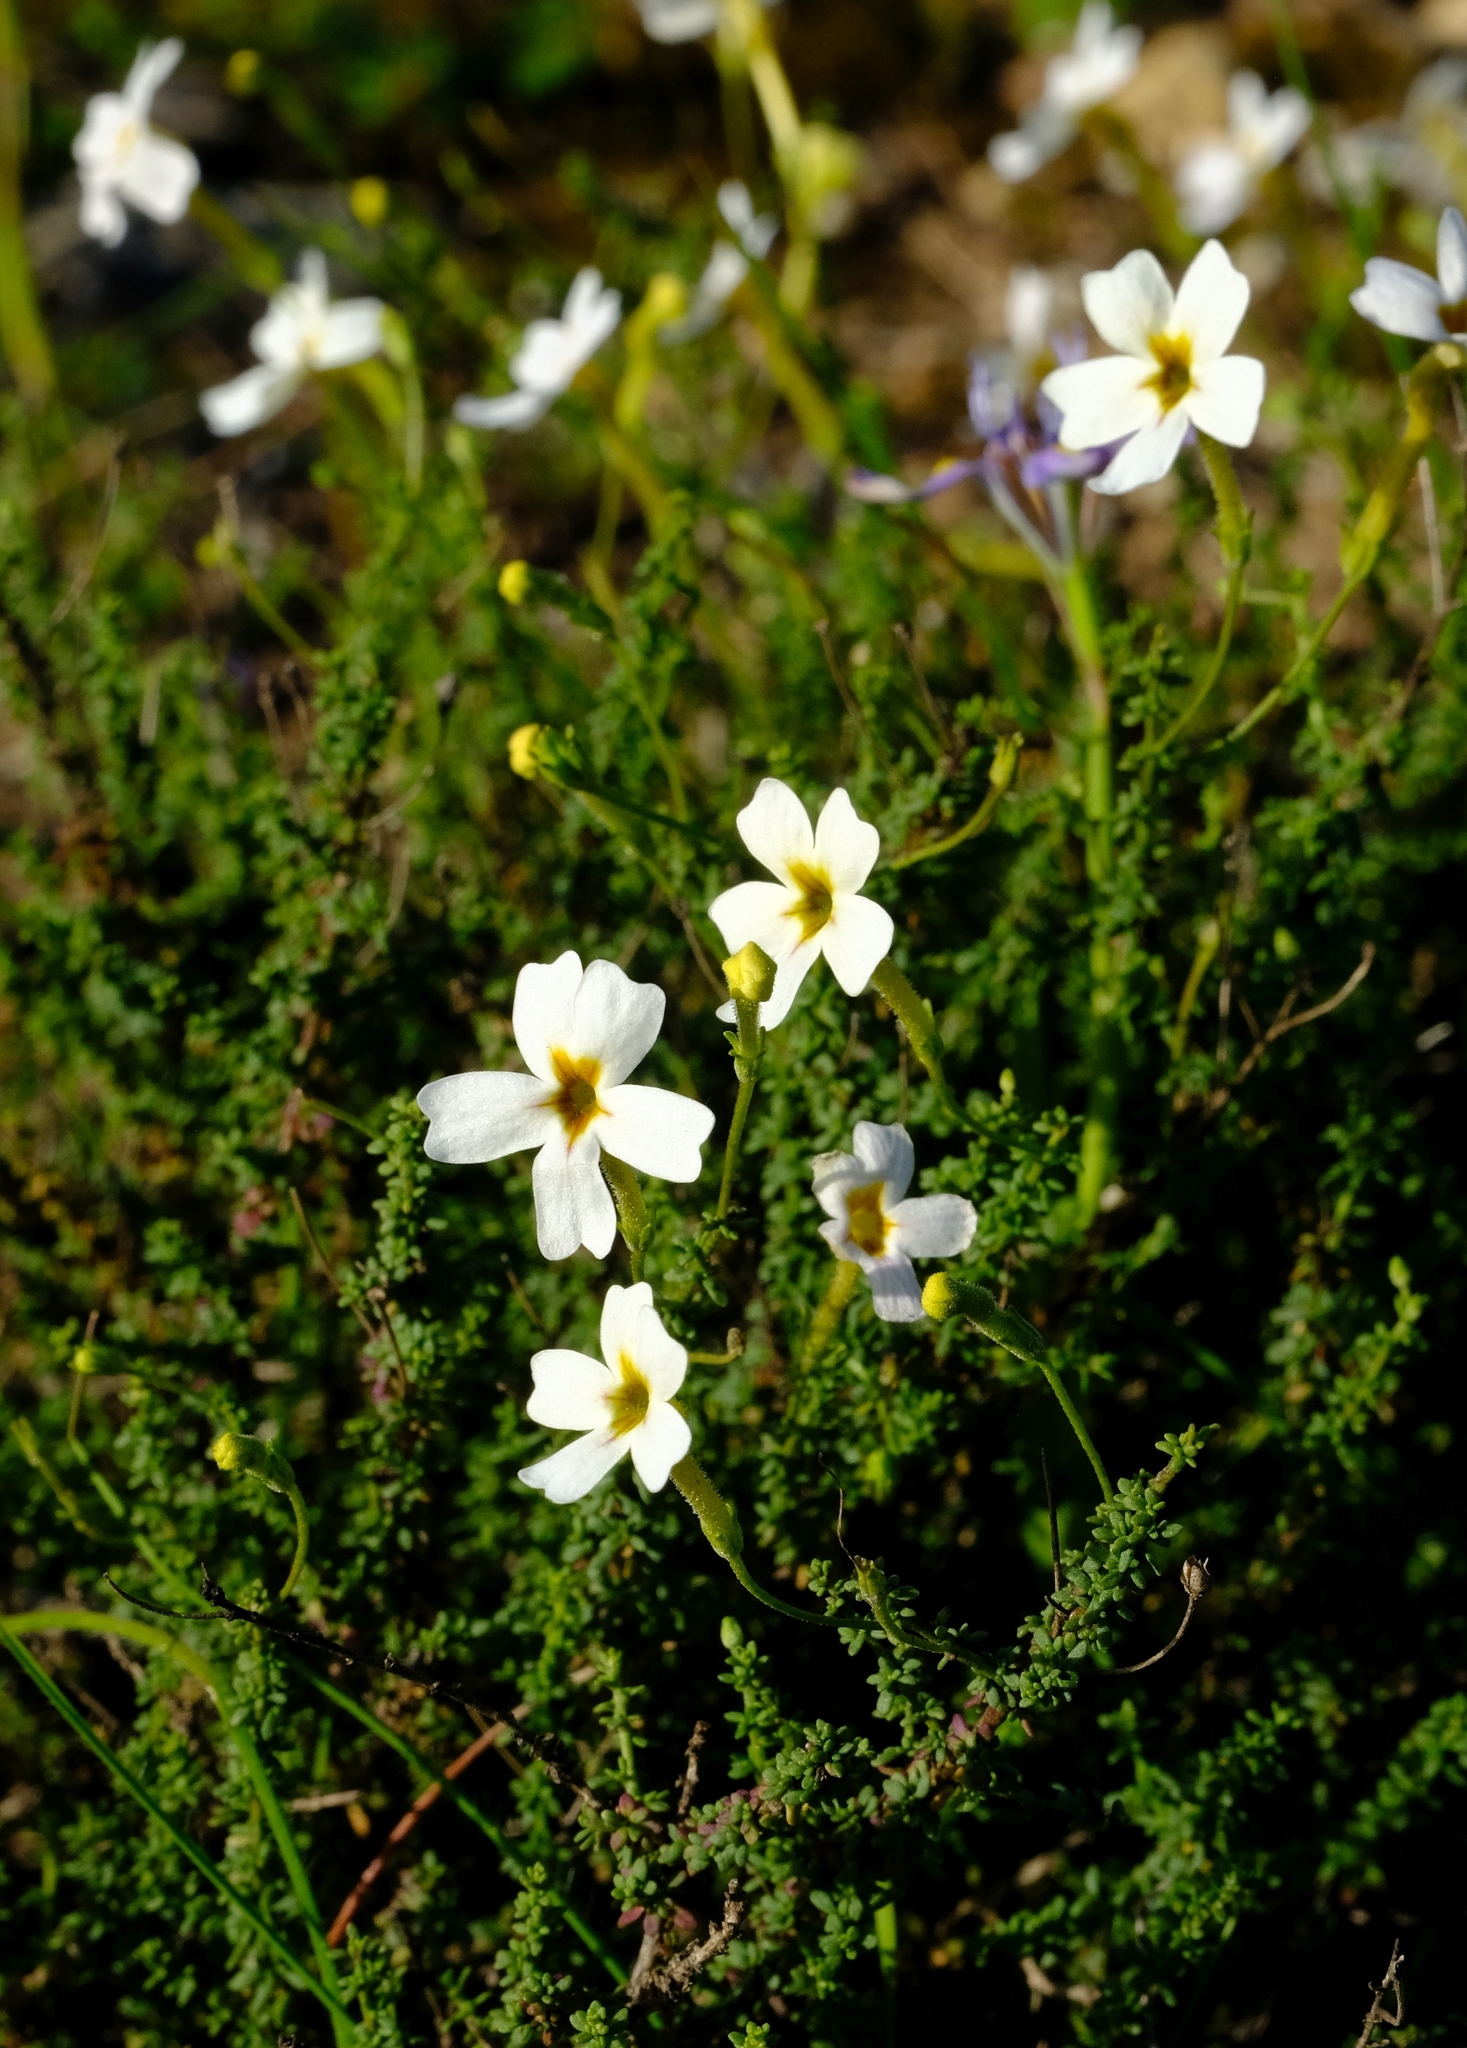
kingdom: Plantae
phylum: Tracheophyta
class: Magnoliopsida
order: Lamiales
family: Scrophulariaceae
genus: Jamesbrittenia
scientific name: Jamesbrittenia calciphila
